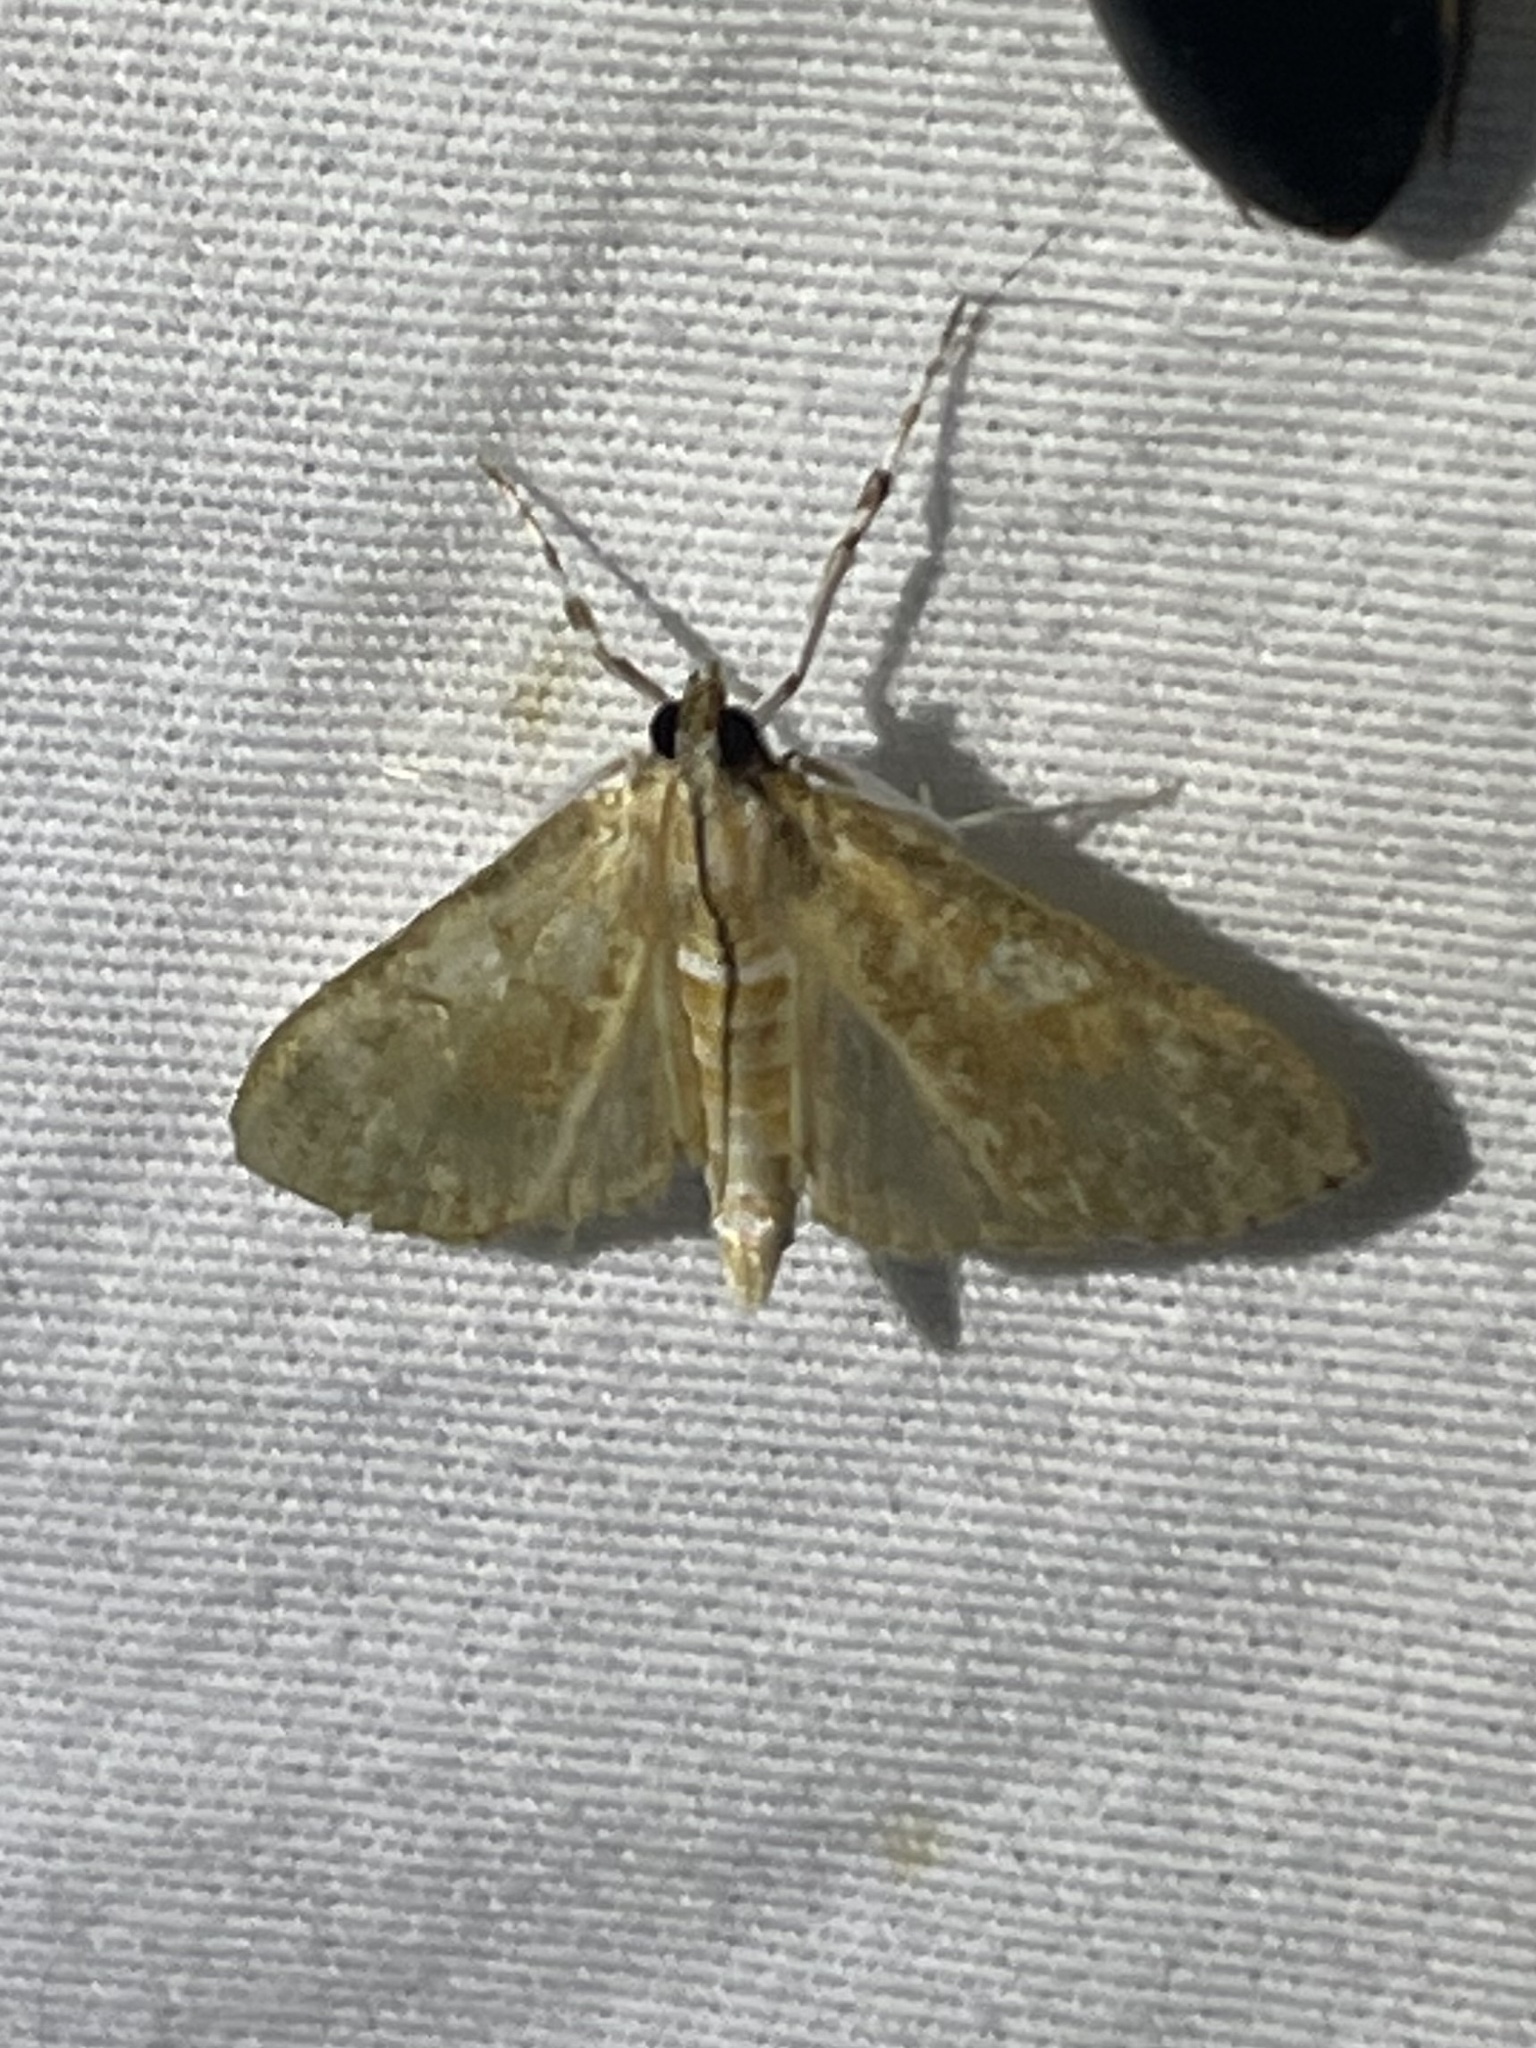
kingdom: Animalia
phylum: Arthropoda
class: Insecta
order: Lepidoptera
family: Crambidae
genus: Palpita
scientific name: Palpita freemanalis
